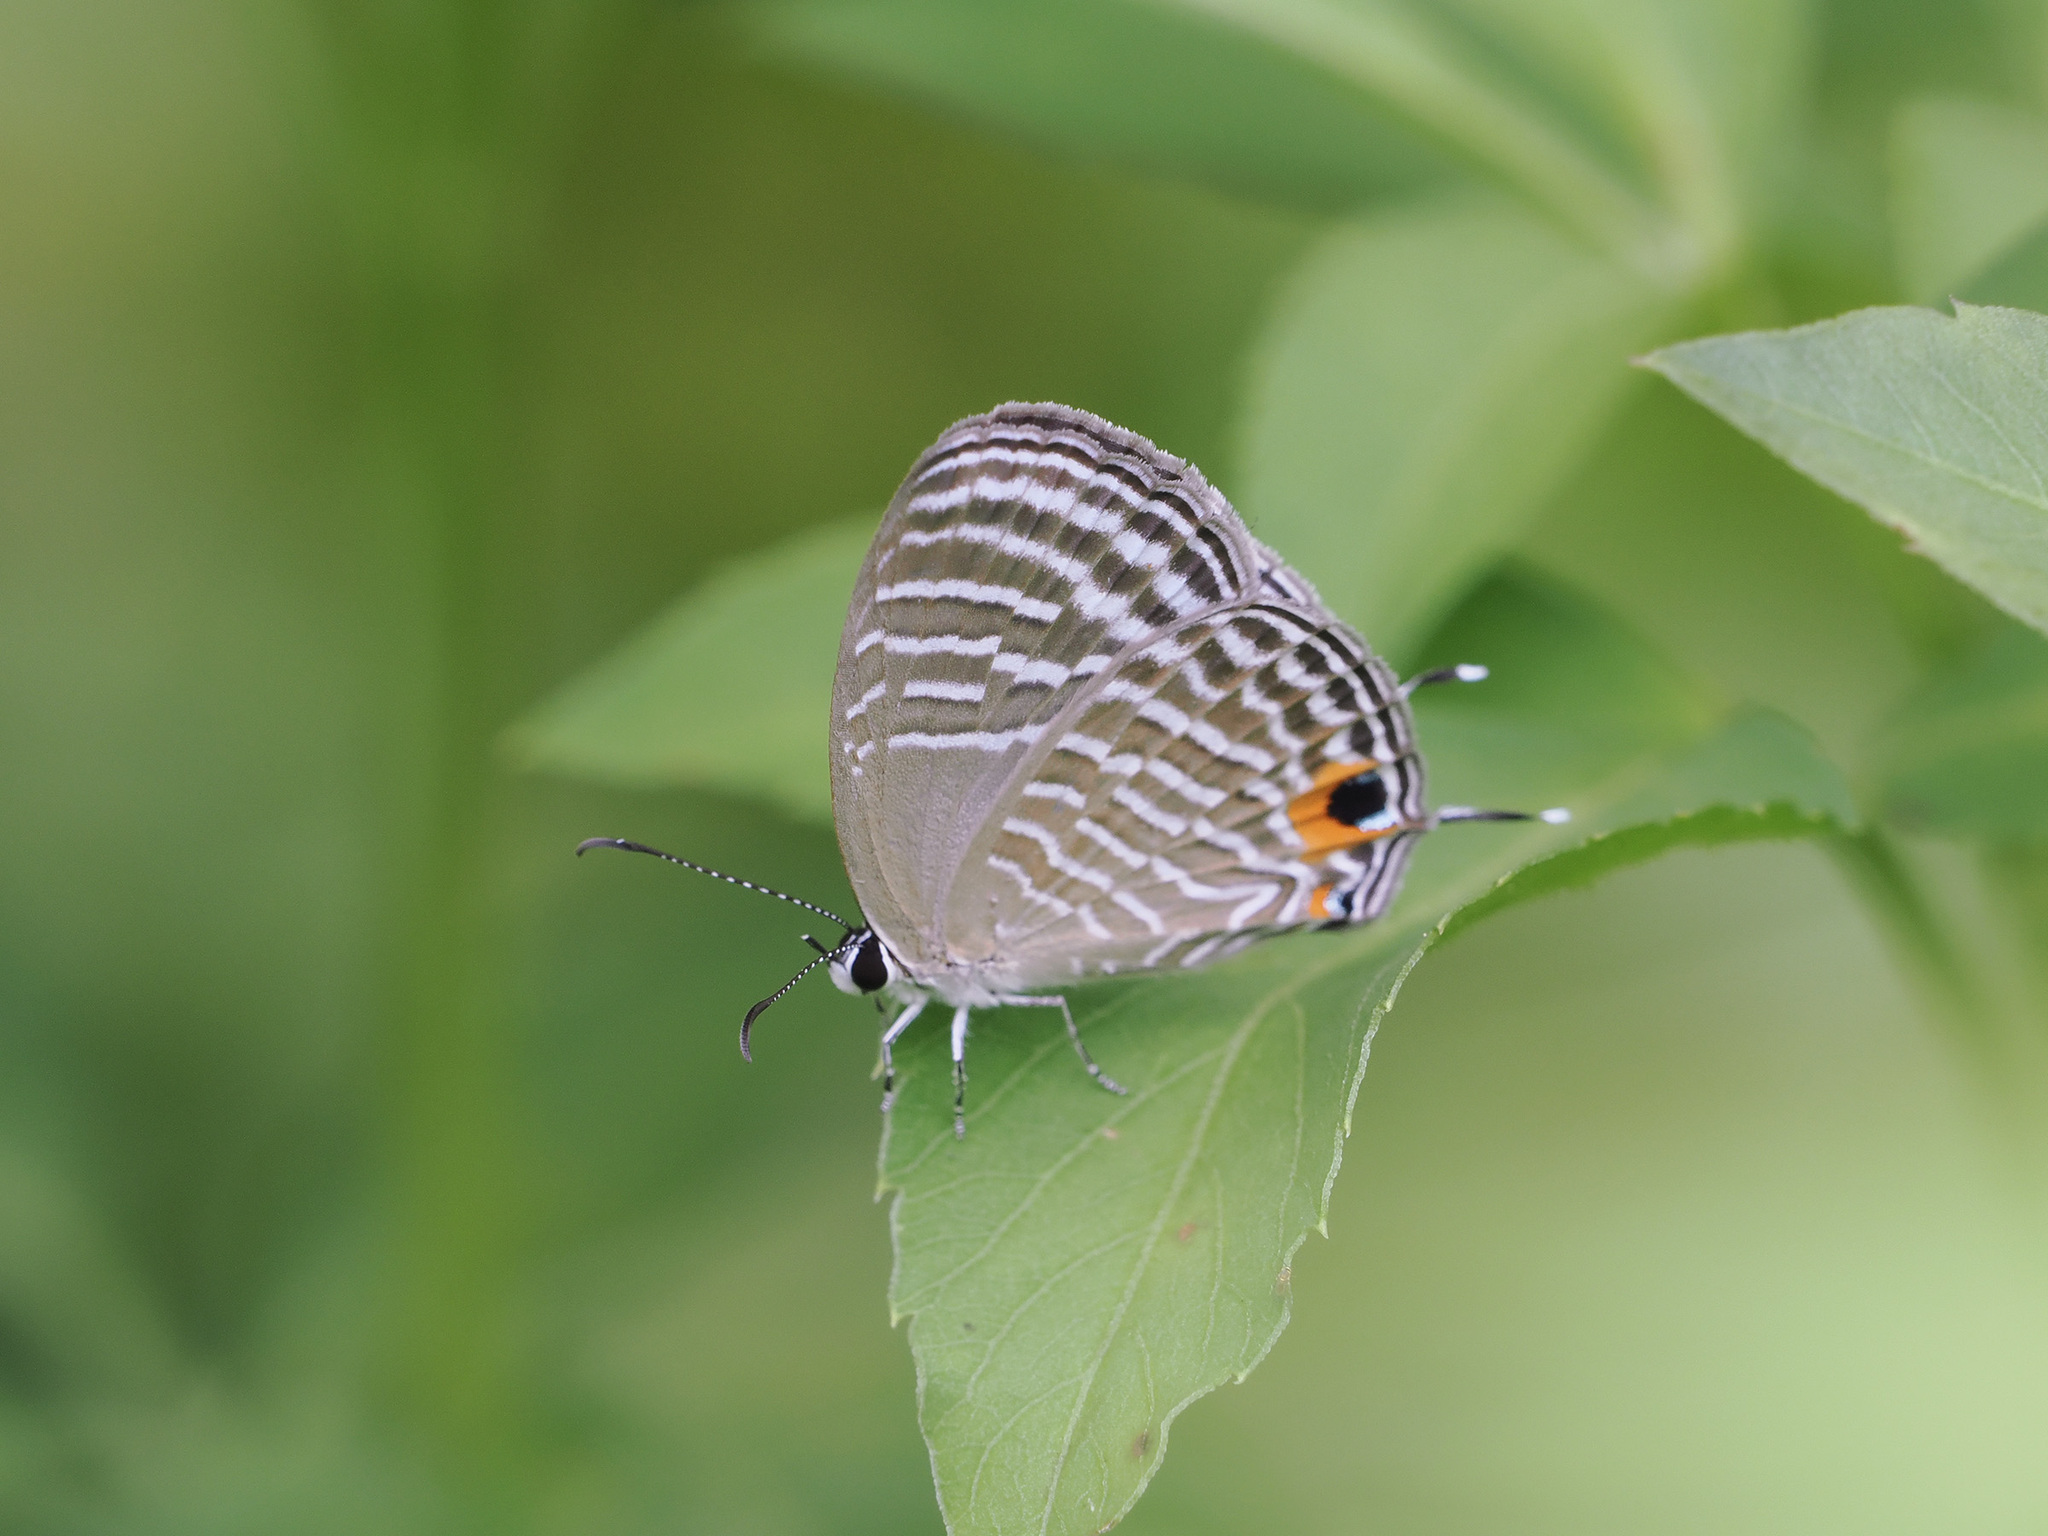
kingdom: Animalia
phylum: Arthropoda
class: Insecta
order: Lepidoptera
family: Lycaenidae
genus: Jamides
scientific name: Jamides celeno
